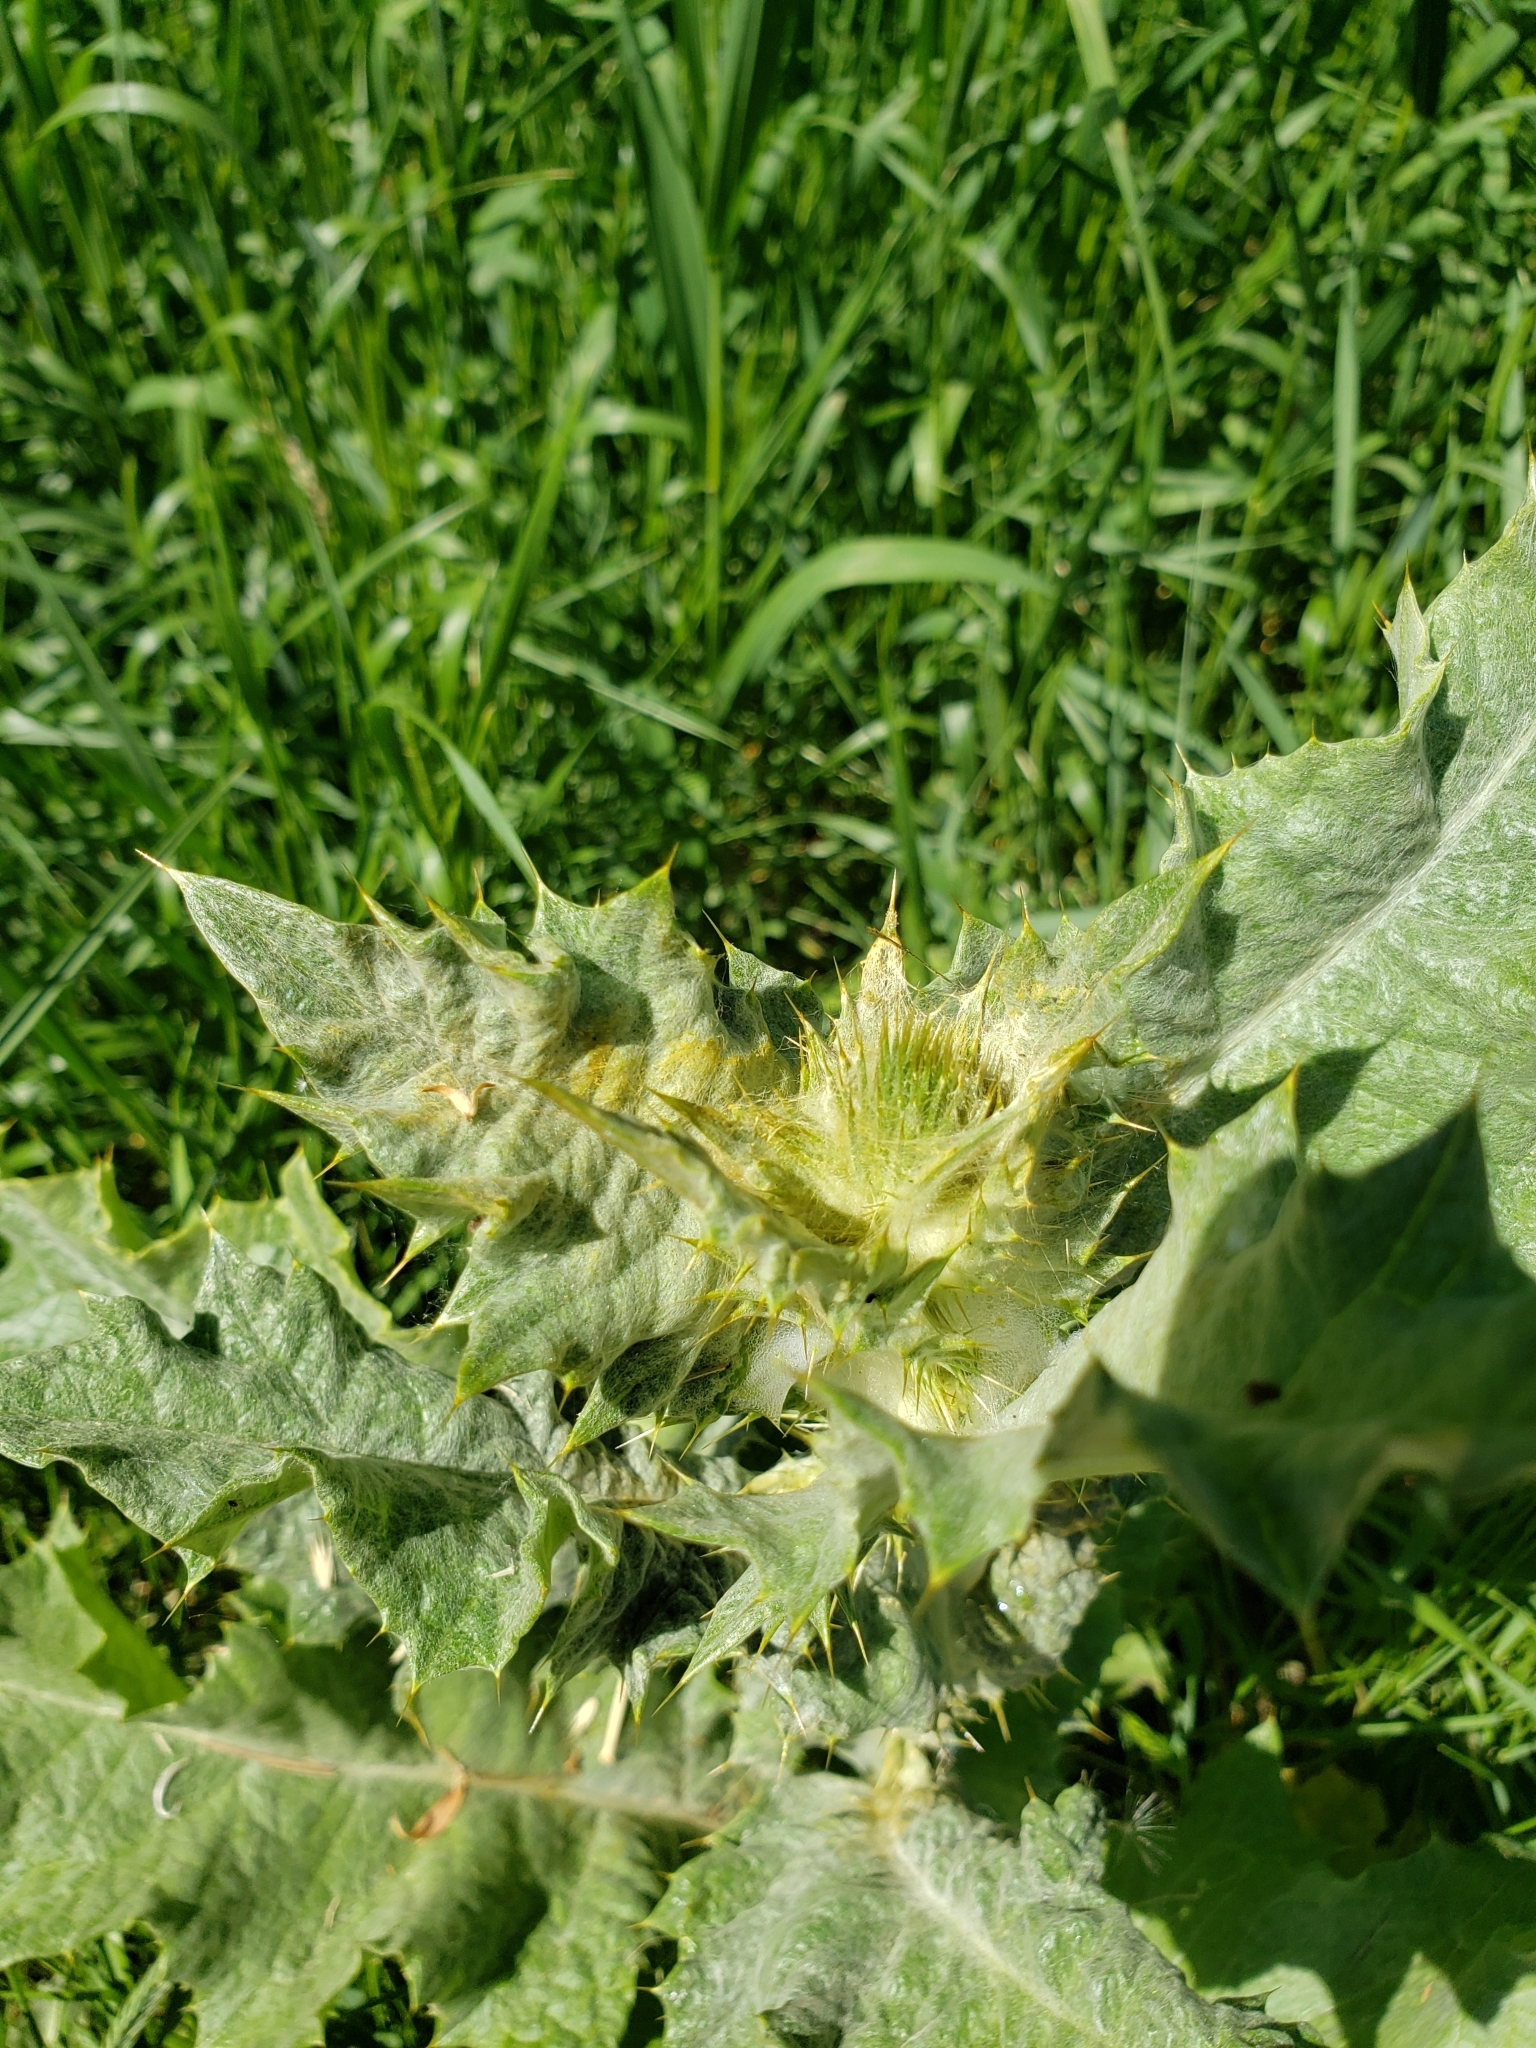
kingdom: Plantae
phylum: Tracheophyta
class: Magnoliopsida
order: Asterales
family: Asteraceae
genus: Onopordum
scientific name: Onopordum acanthium
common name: Scotch thistle
